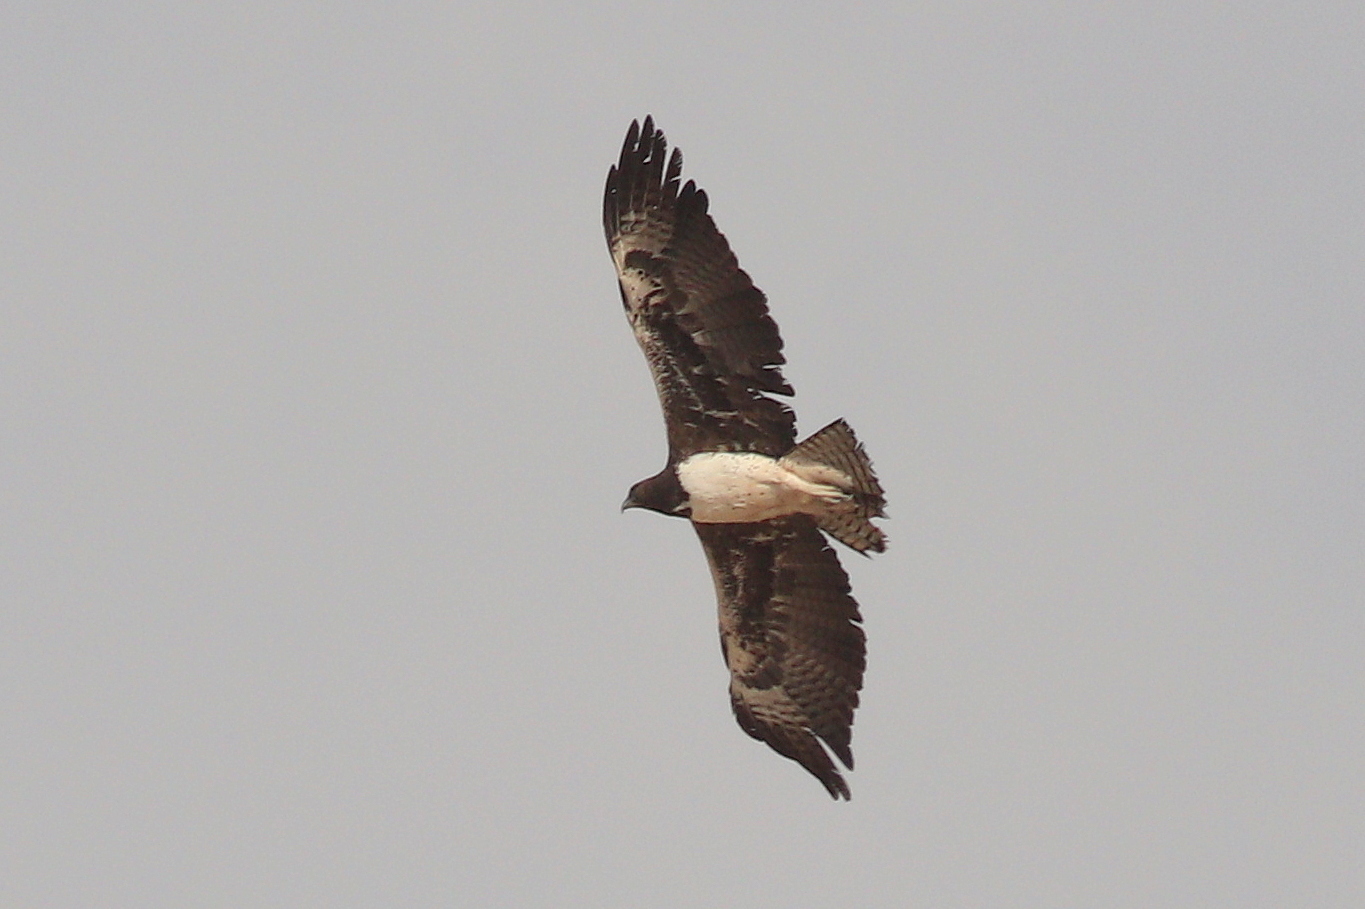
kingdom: Animalia
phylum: Chordata
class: Aves
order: Accipitriformes
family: Accipitridae
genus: Polemaetus
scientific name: Polemaetus bellicosus
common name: Martial eagle
